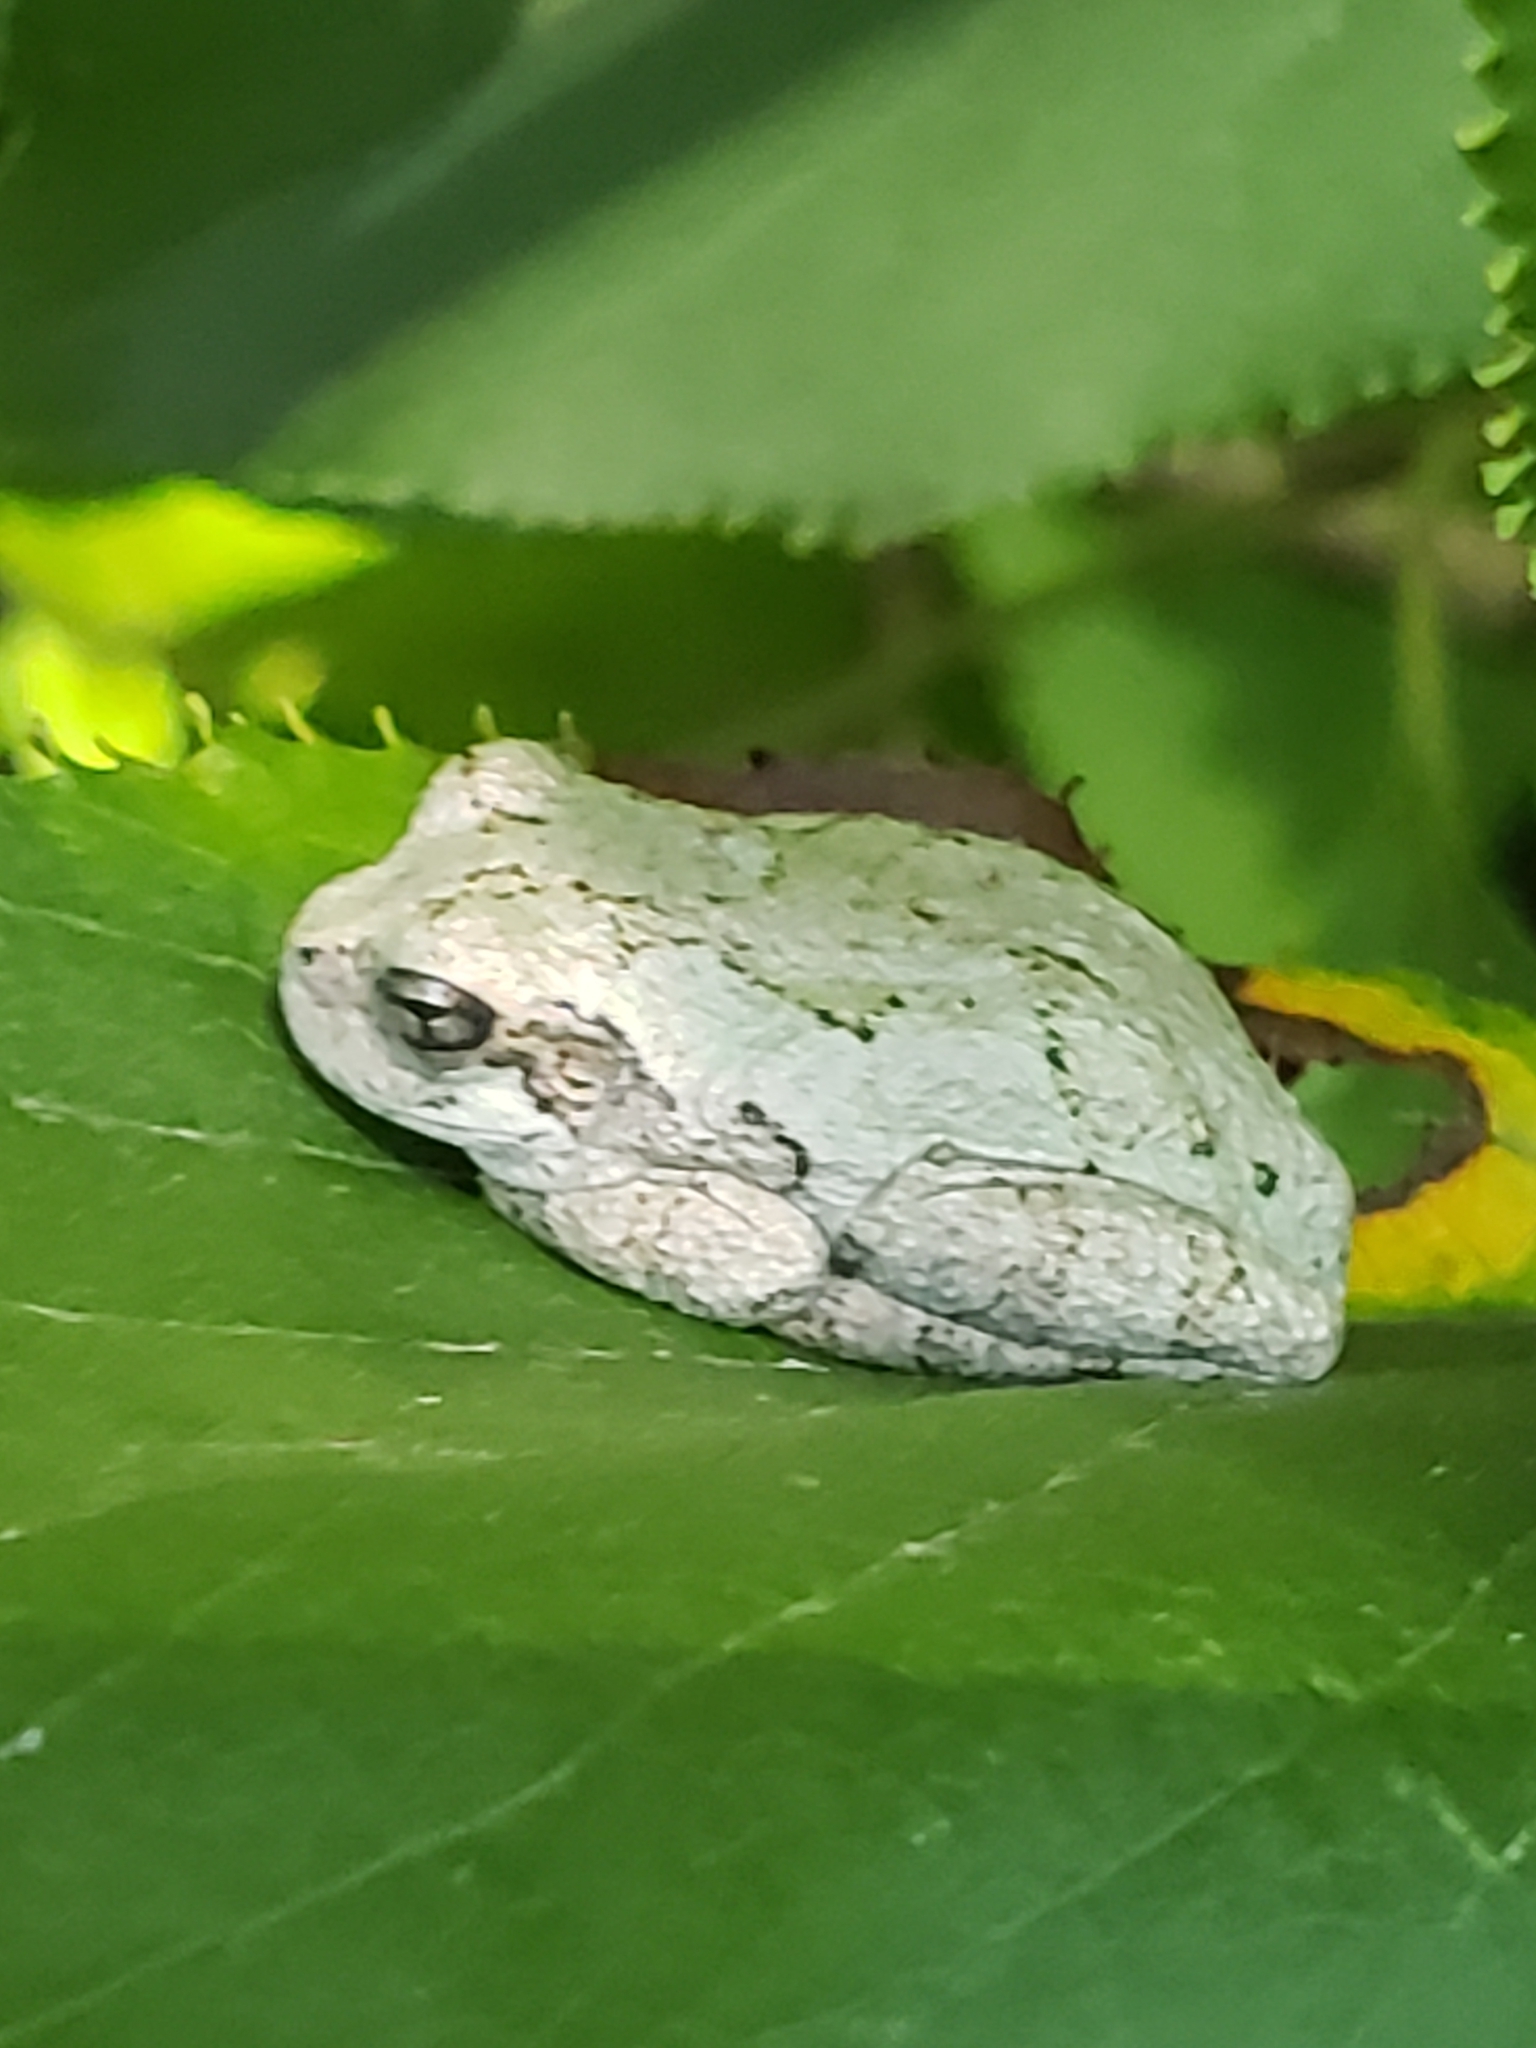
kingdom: Animalia
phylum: Chordata
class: Amphibia
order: Anura
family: Hylidae
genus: Hyla
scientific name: Hyla
